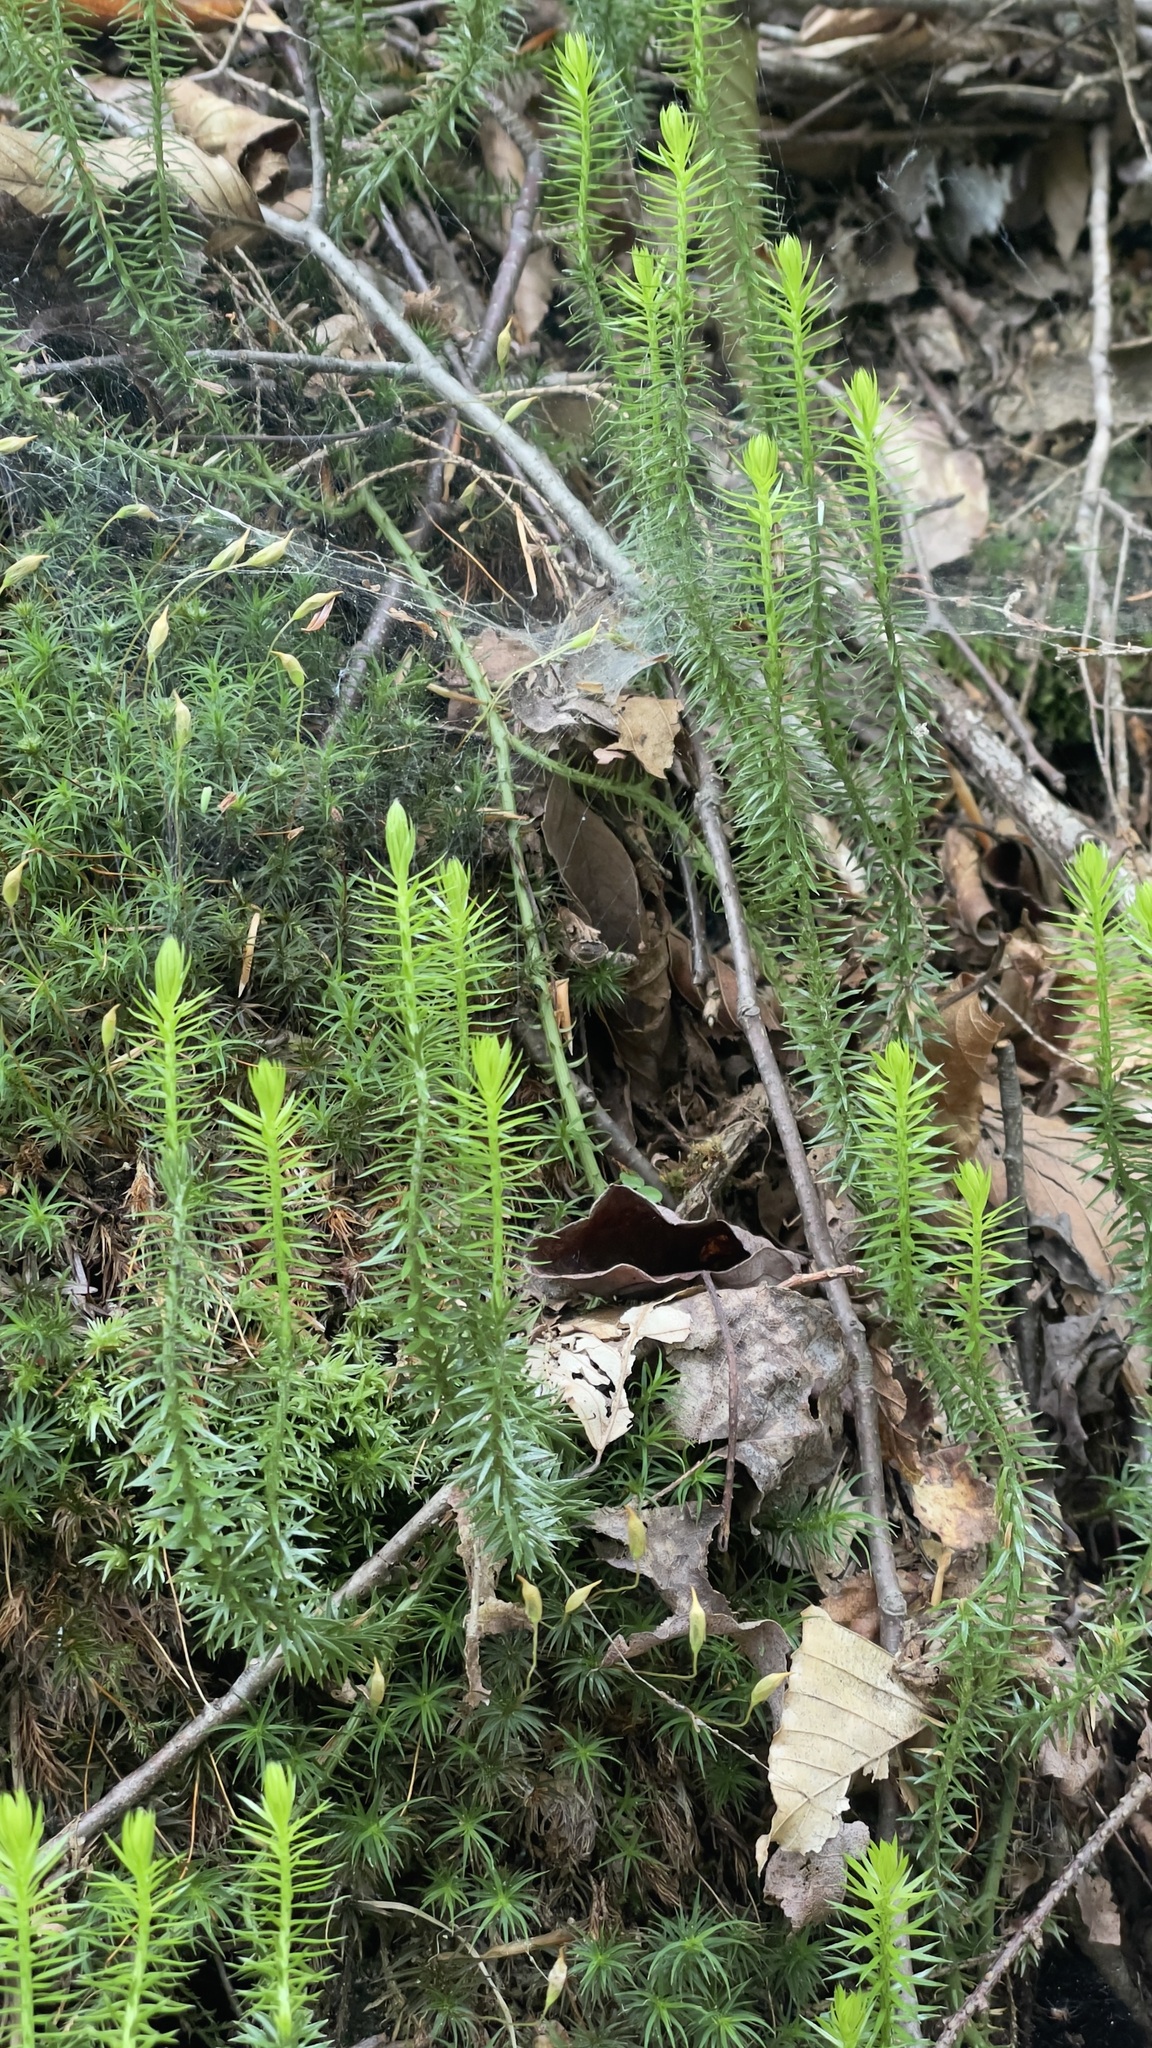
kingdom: Plantae
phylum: Tracheophyta
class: Lycopodiopsida
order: Lycopodiales
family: Lycopodiaceae
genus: Spinulum
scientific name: Spinulum annotinum
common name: Interrupted club-moss
